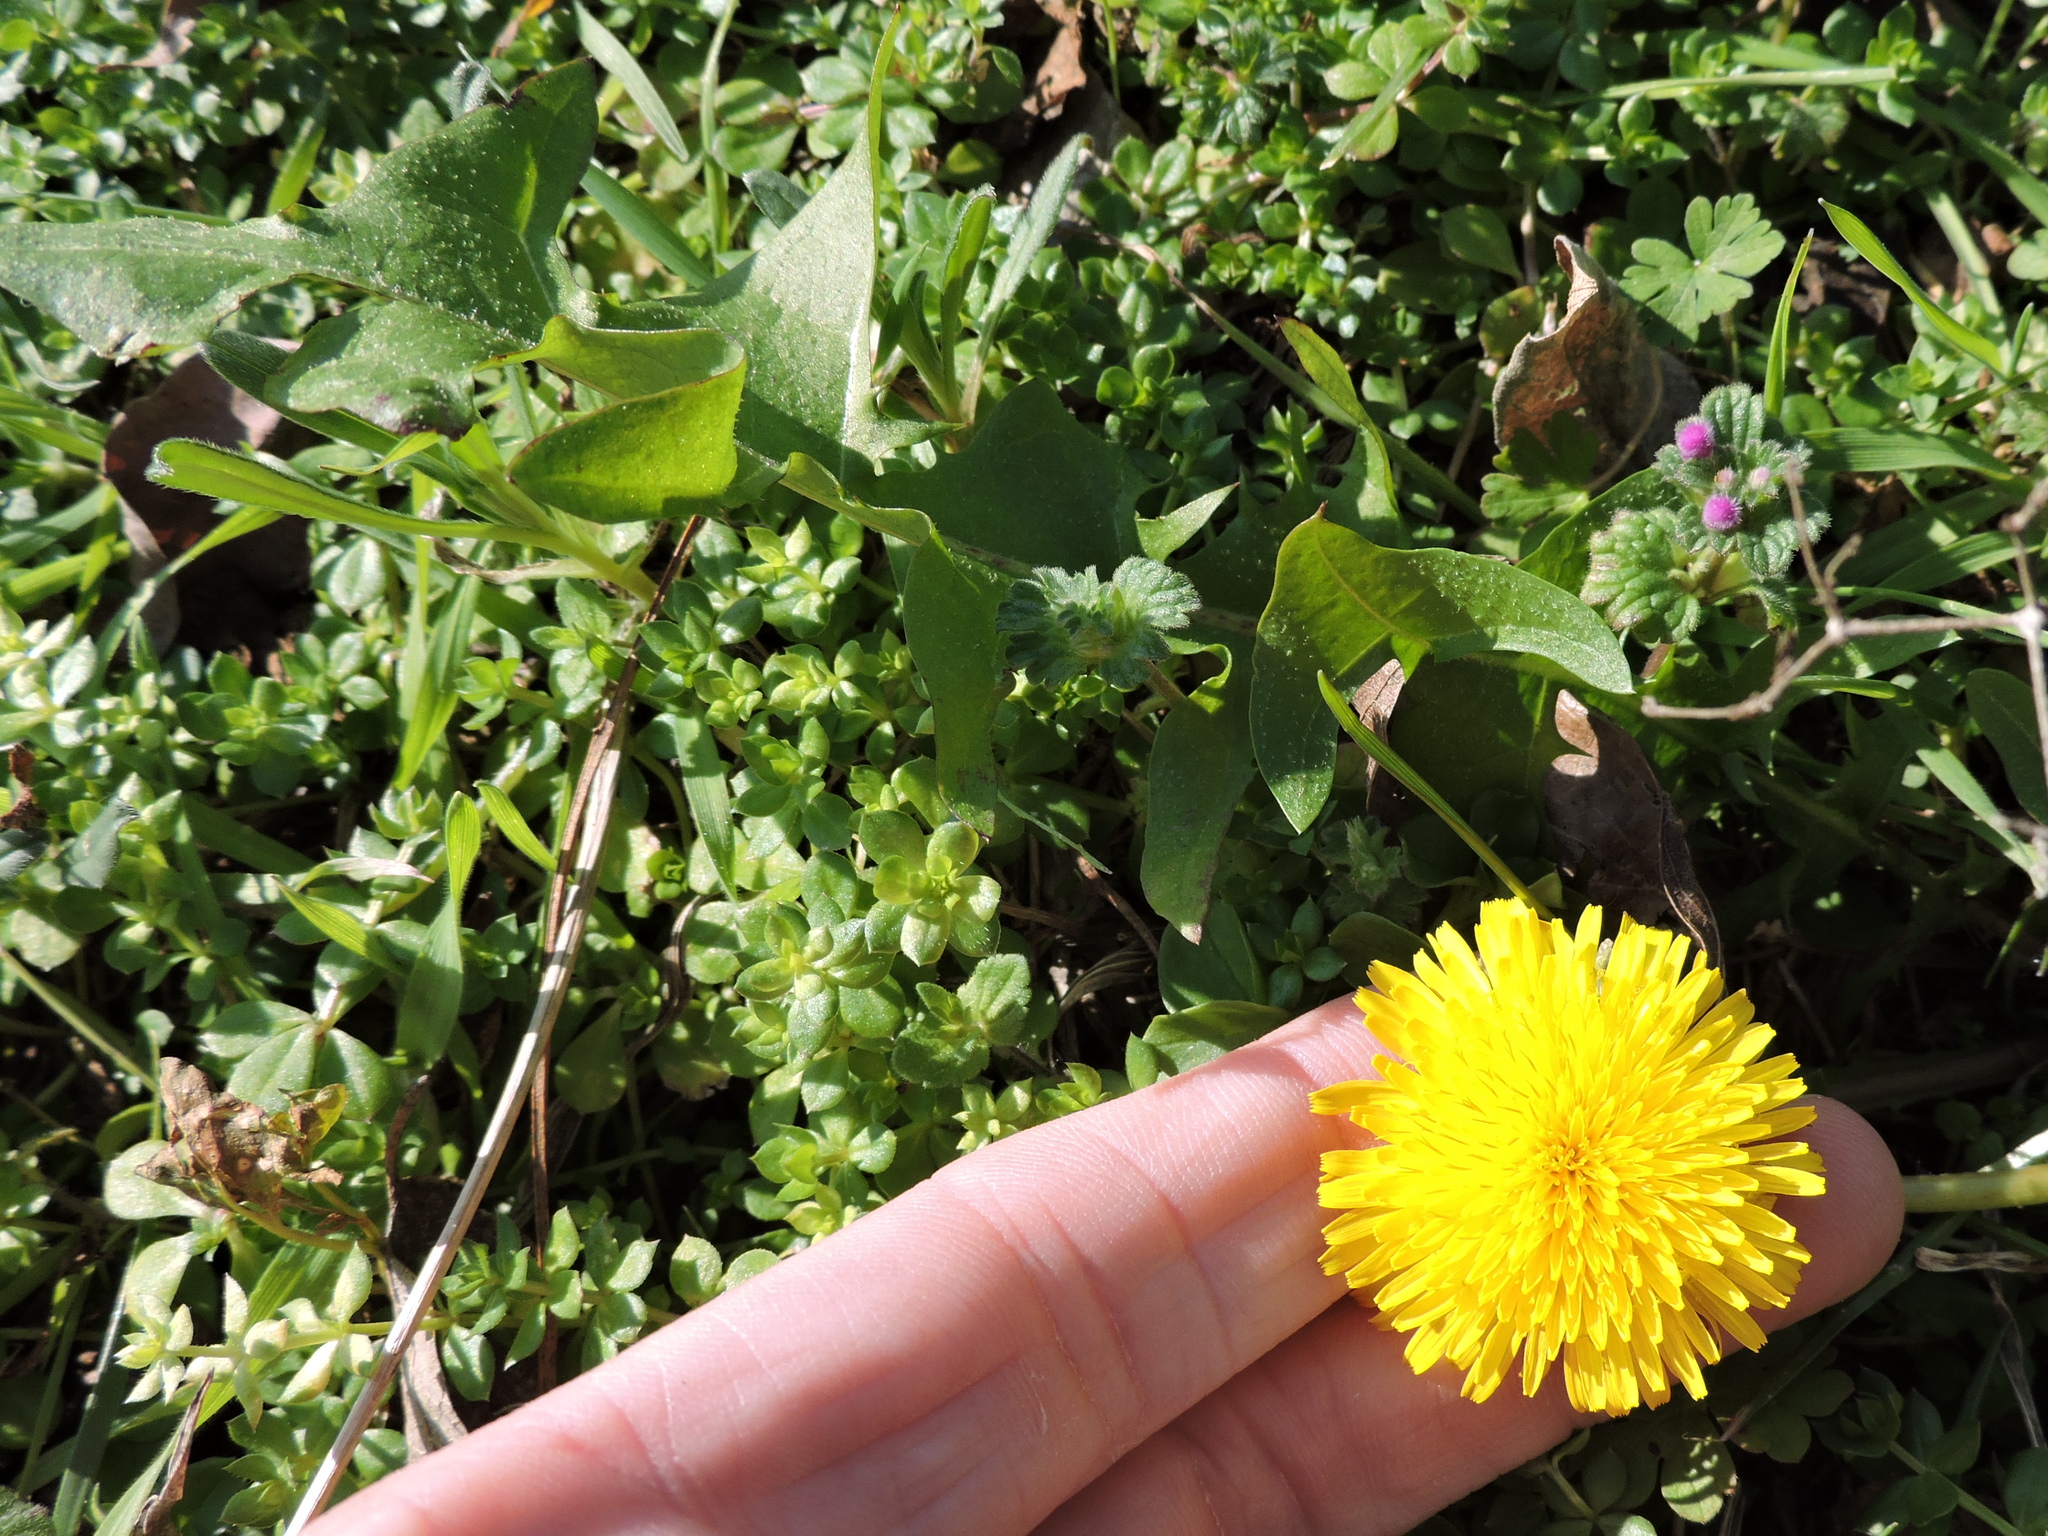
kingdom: Plantae
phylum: Tracheophyta
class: Magnoliopsida
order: Asterales
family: Asteraceae
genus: Taraxacum
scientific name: Taraxacum officinale
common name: Common dandelion
